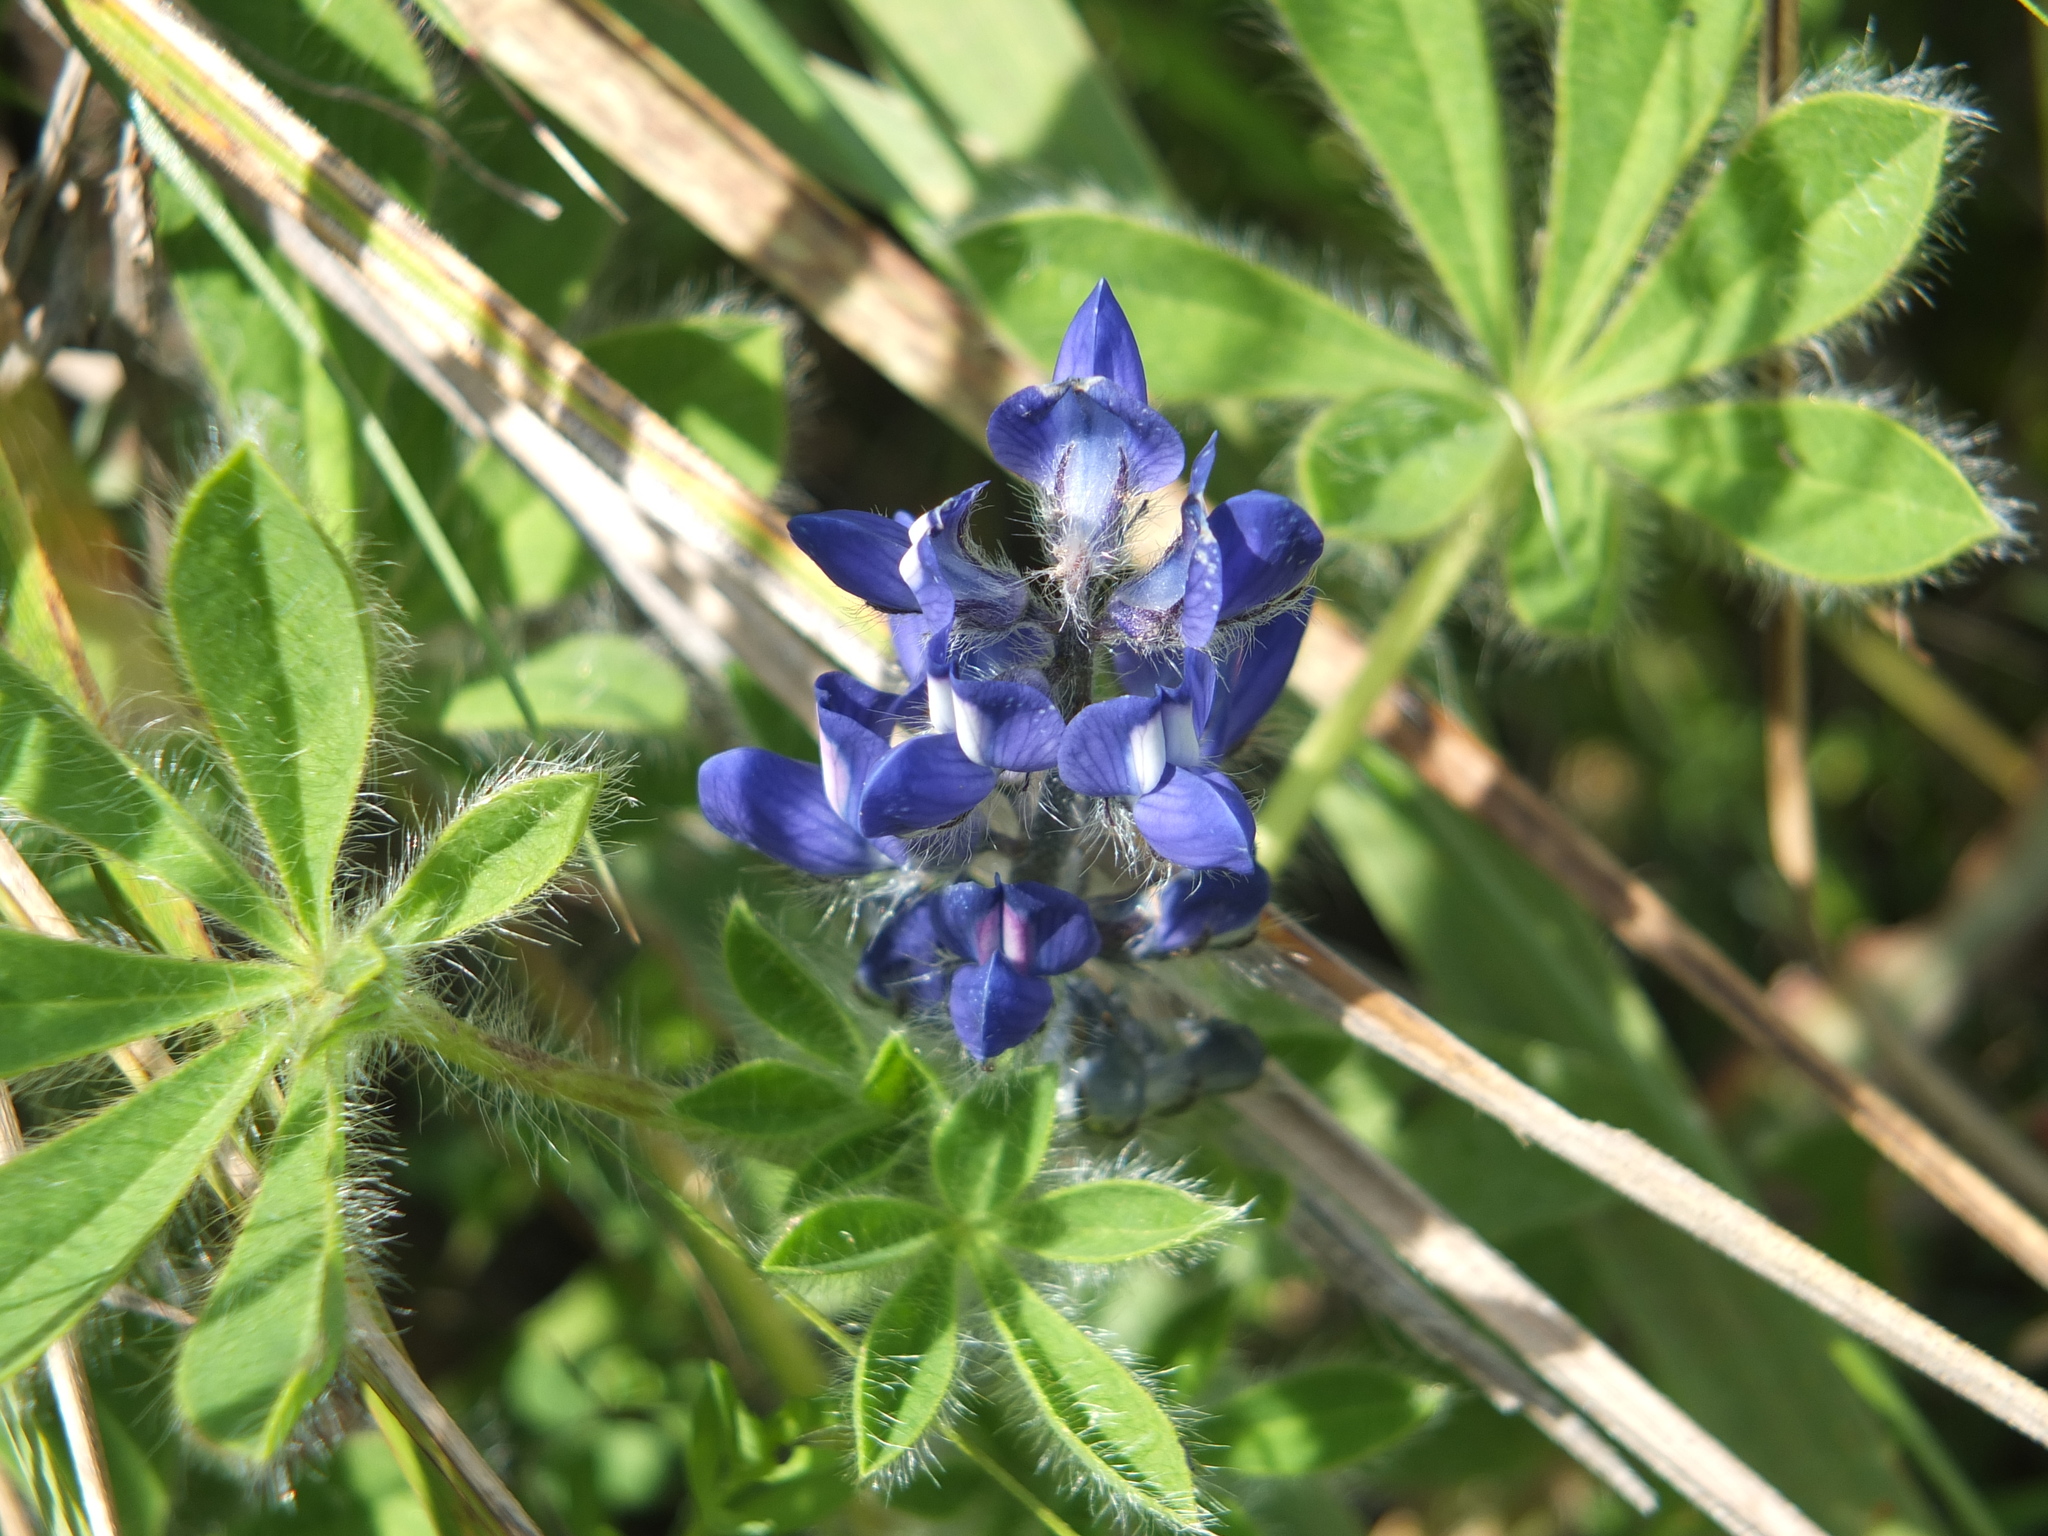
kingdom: Plantae
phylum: Tracheophyta
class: Magnoliopsida
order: Fabales
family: Fabaceae
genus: Lupinus
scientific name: Lupinus gussoneanus
